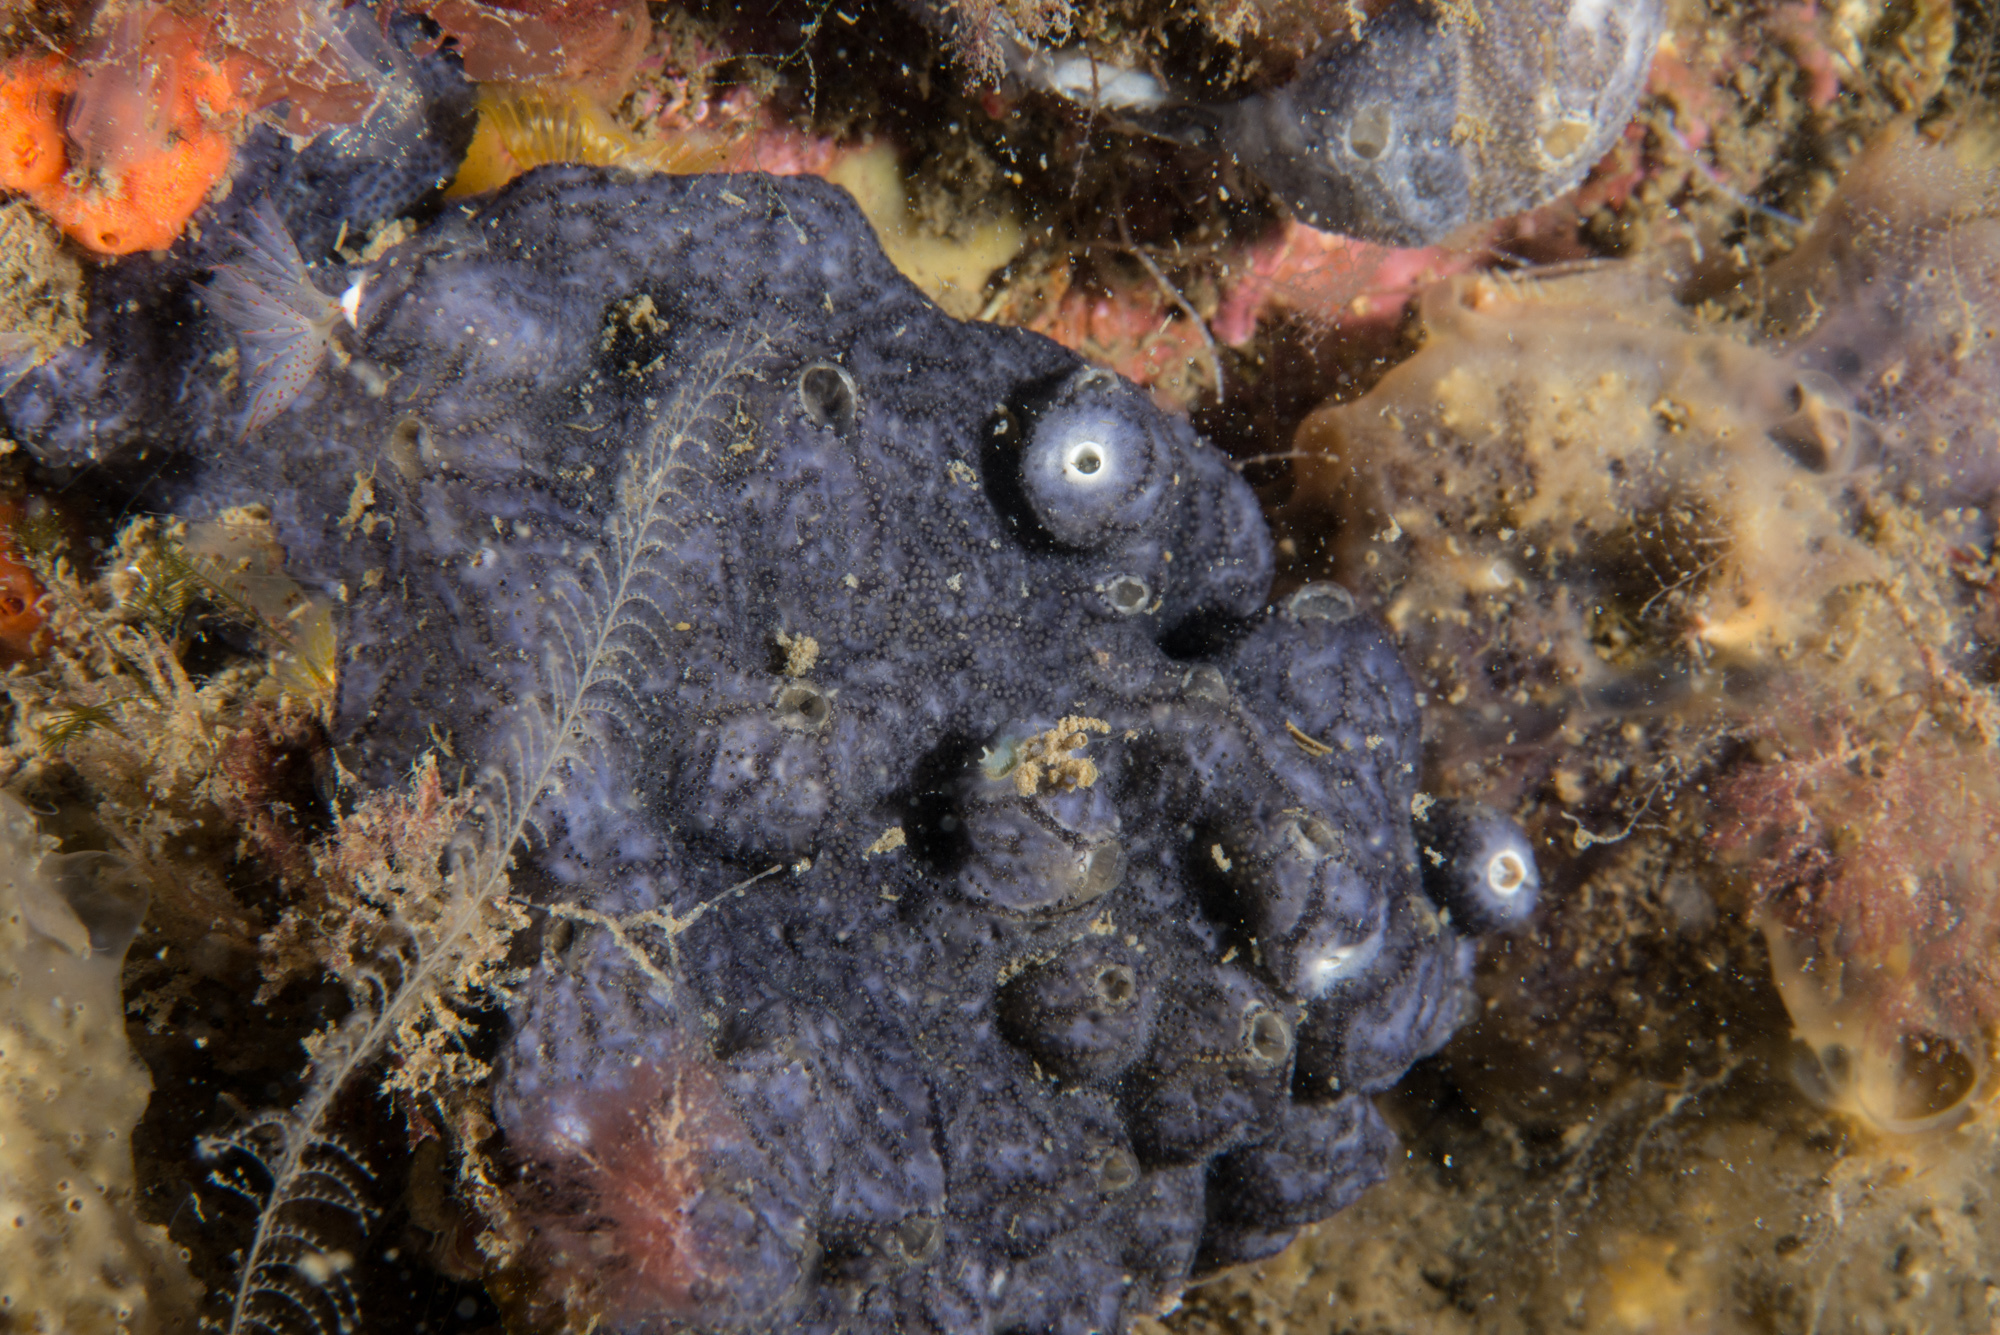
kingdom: Animalia
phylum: Chordata
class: Ascidiacea
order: Aplousobranchia
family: Didemnidae
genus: Didemnum
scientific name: Didemnum coriaceum
